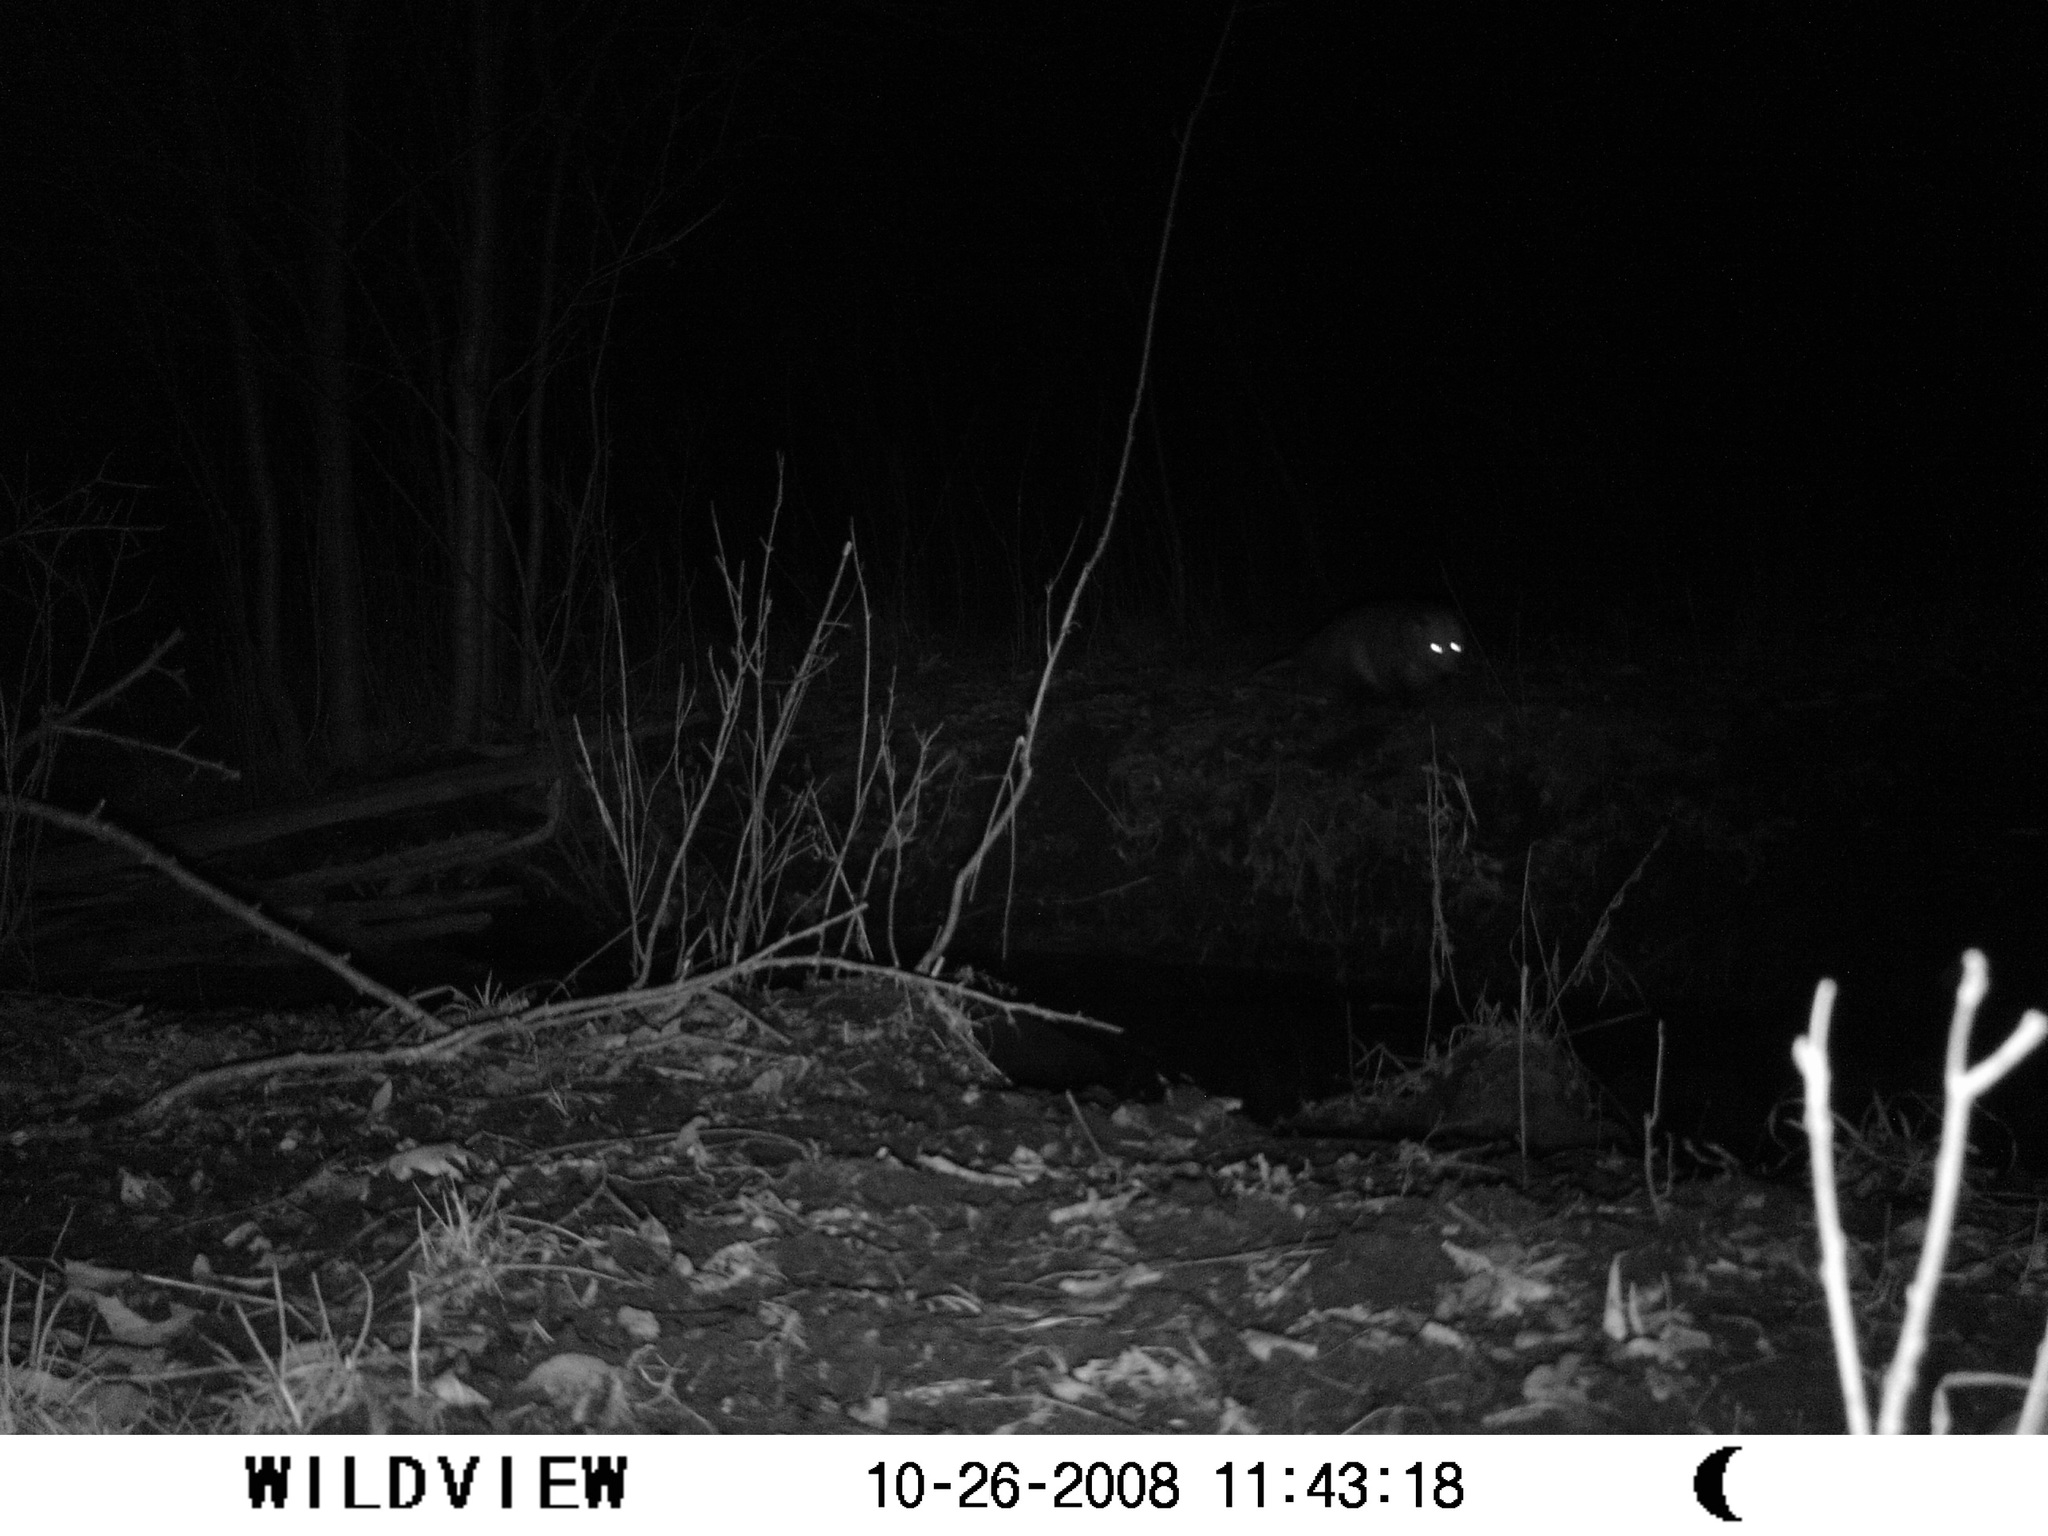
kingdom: Animalia
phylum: Chordata
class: Mammalia
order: Didelphimorphia
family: Didelphidae
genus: Didelphis
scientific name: Didelphis virginiana
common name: Virginia opossum
